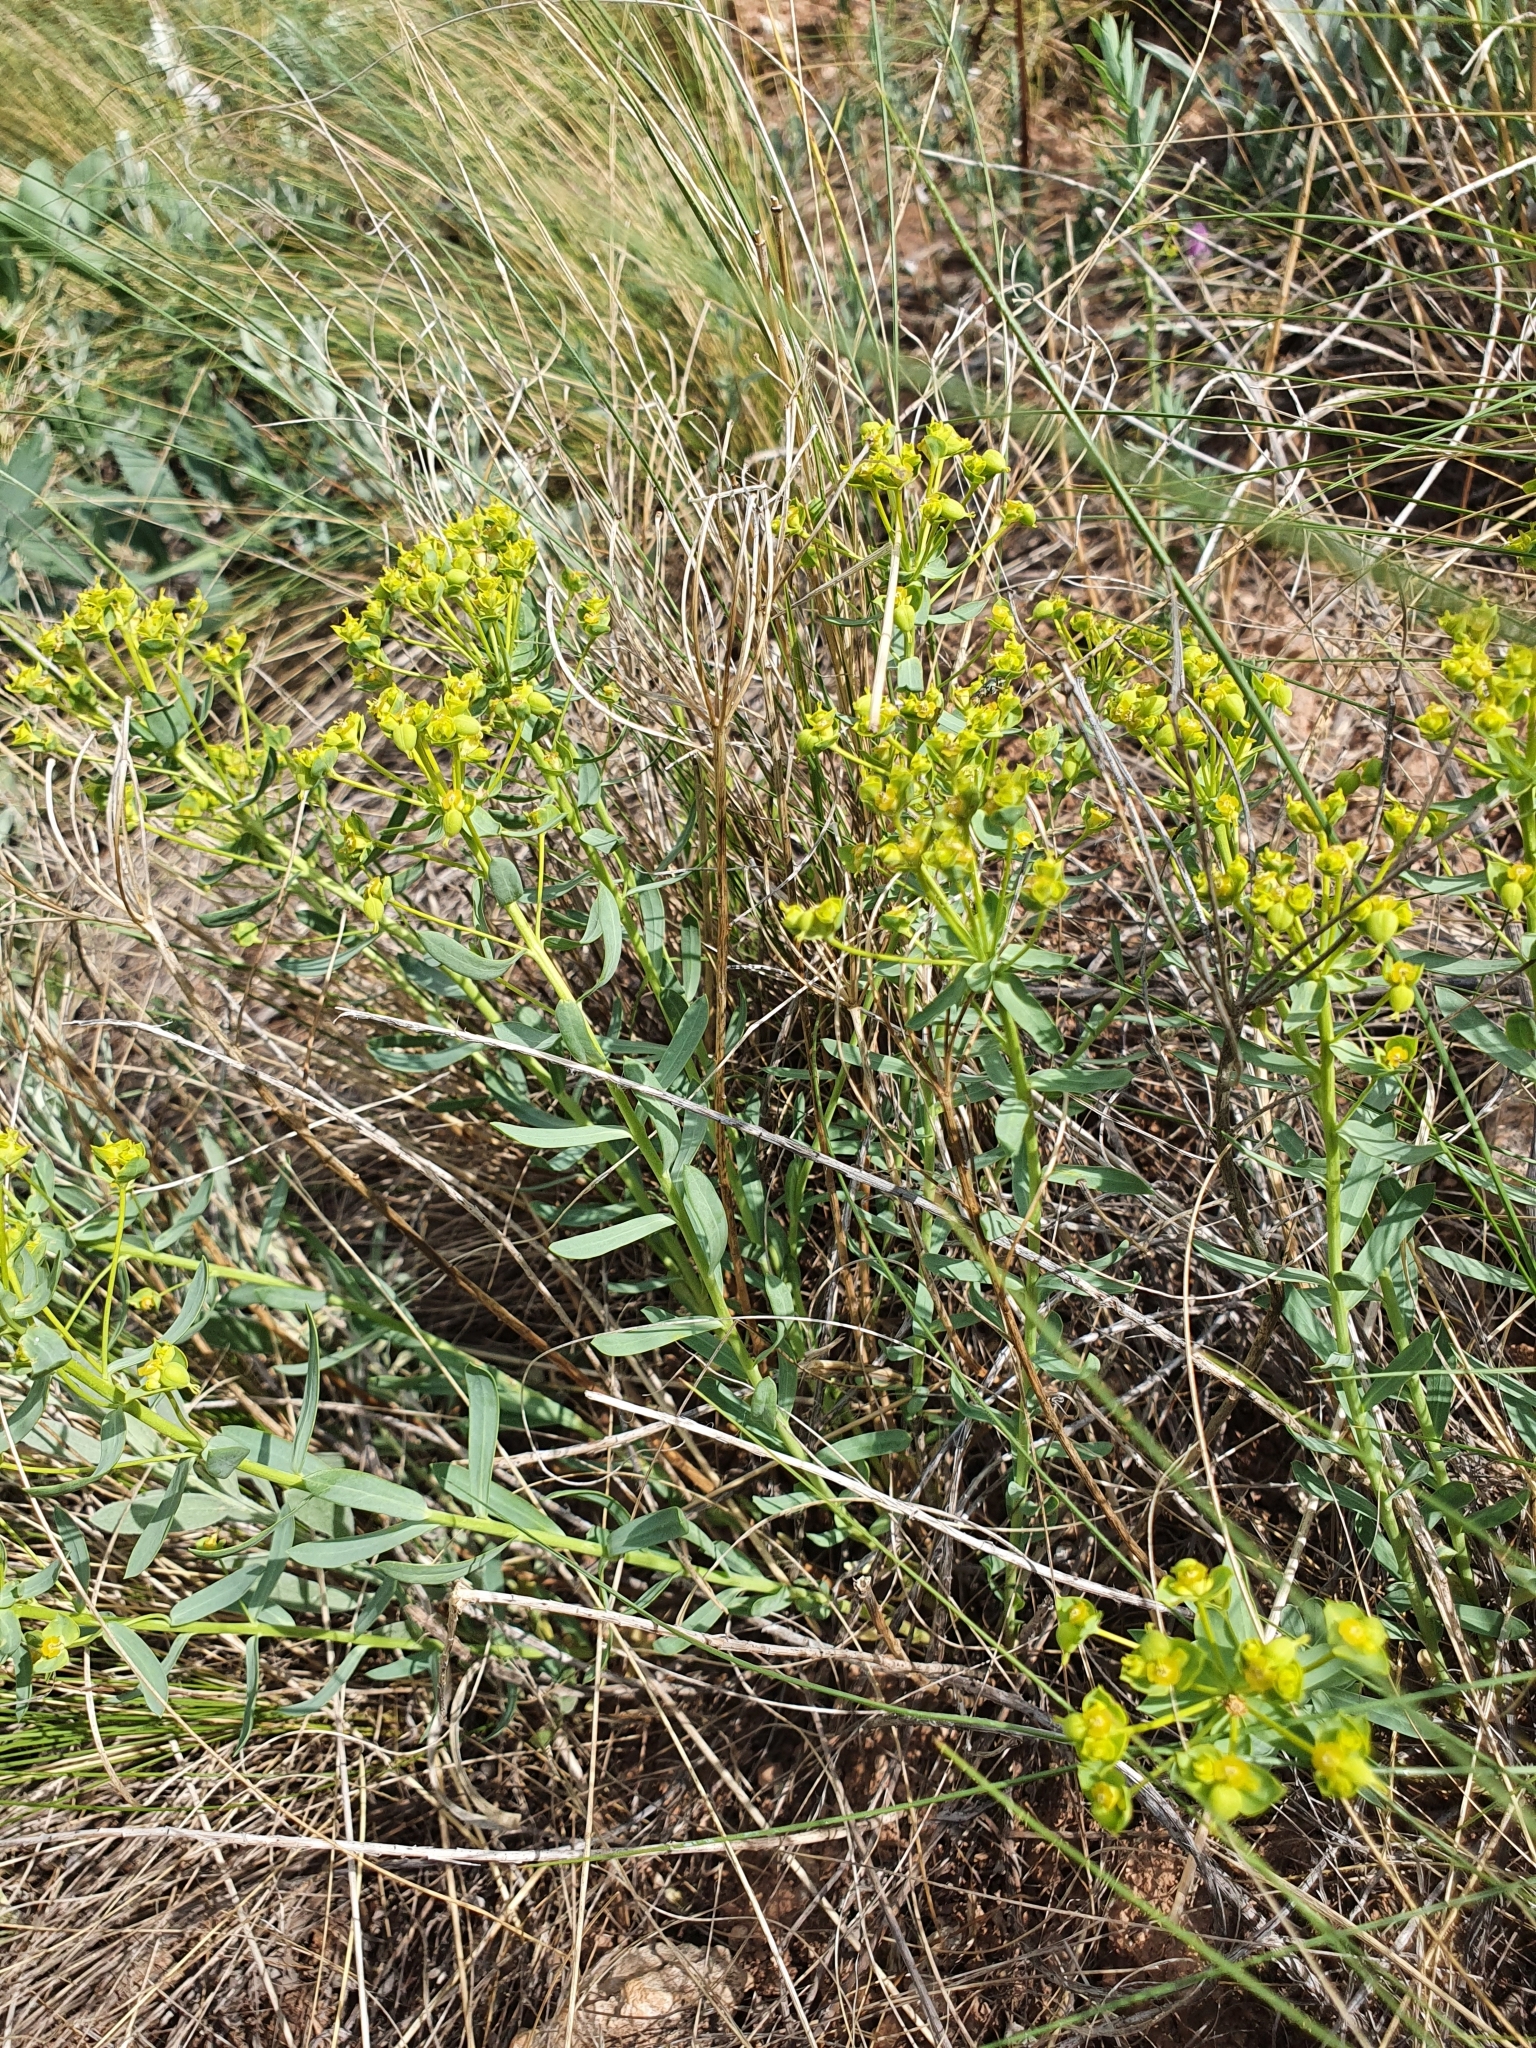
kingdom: Plantae
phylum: Tracheophyta
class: Magnoliopsida
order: Malpighiales
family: Euphorbiaceae
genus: Euphorbia
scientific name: Euphorbia seguieriana
